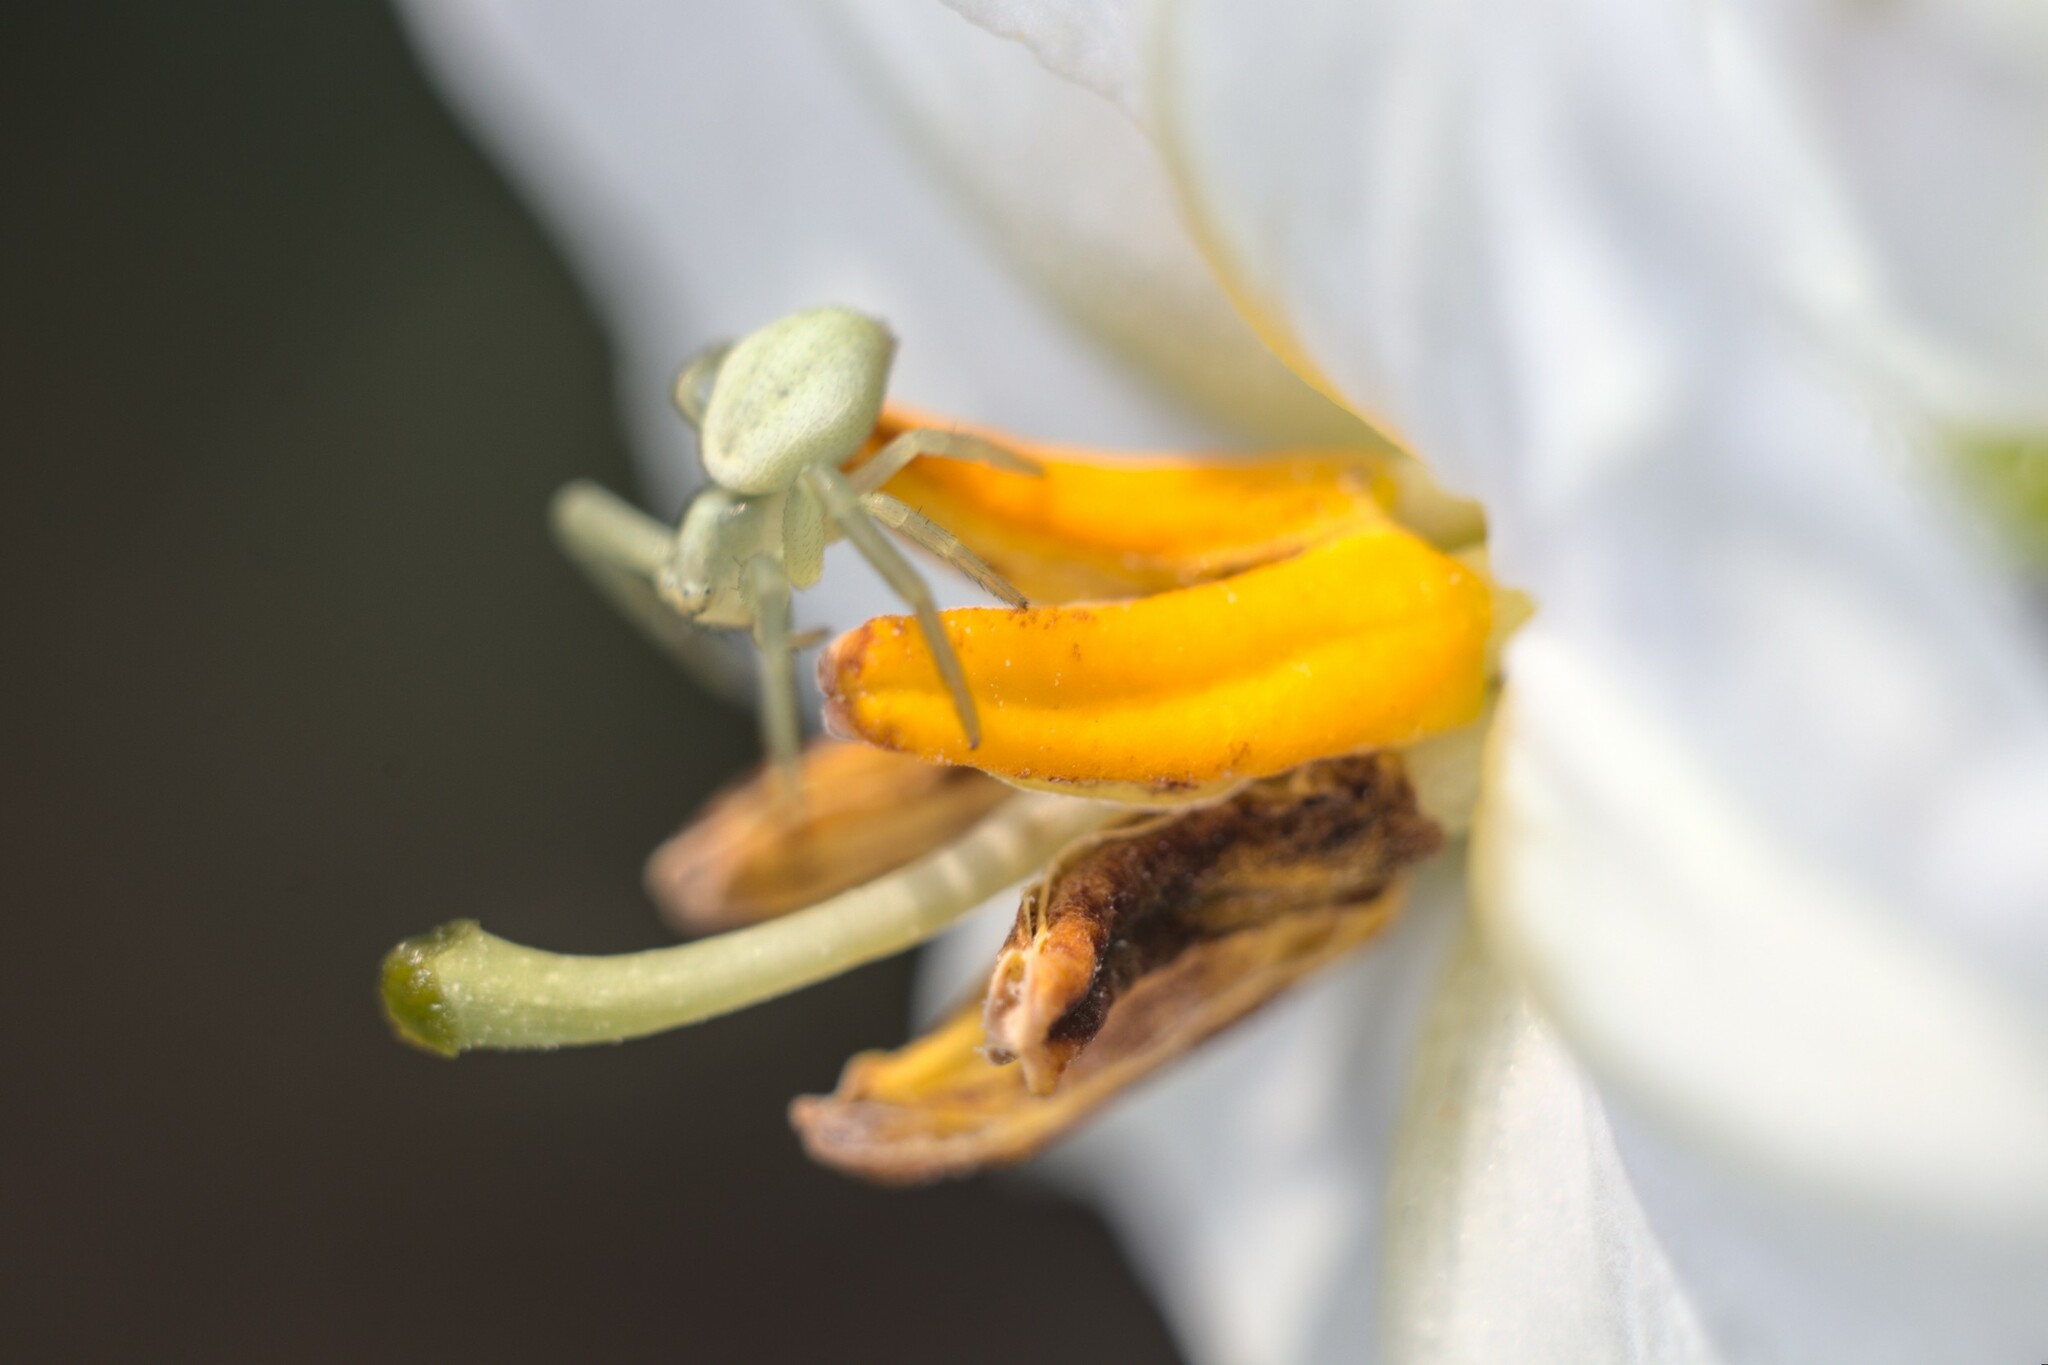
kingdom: Animalia
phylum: Arthropoda
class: Arachnida
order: Araneae
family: Thomisidae
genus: Misumena
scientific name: Misumena vatia
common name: Goldenrod crab spider
